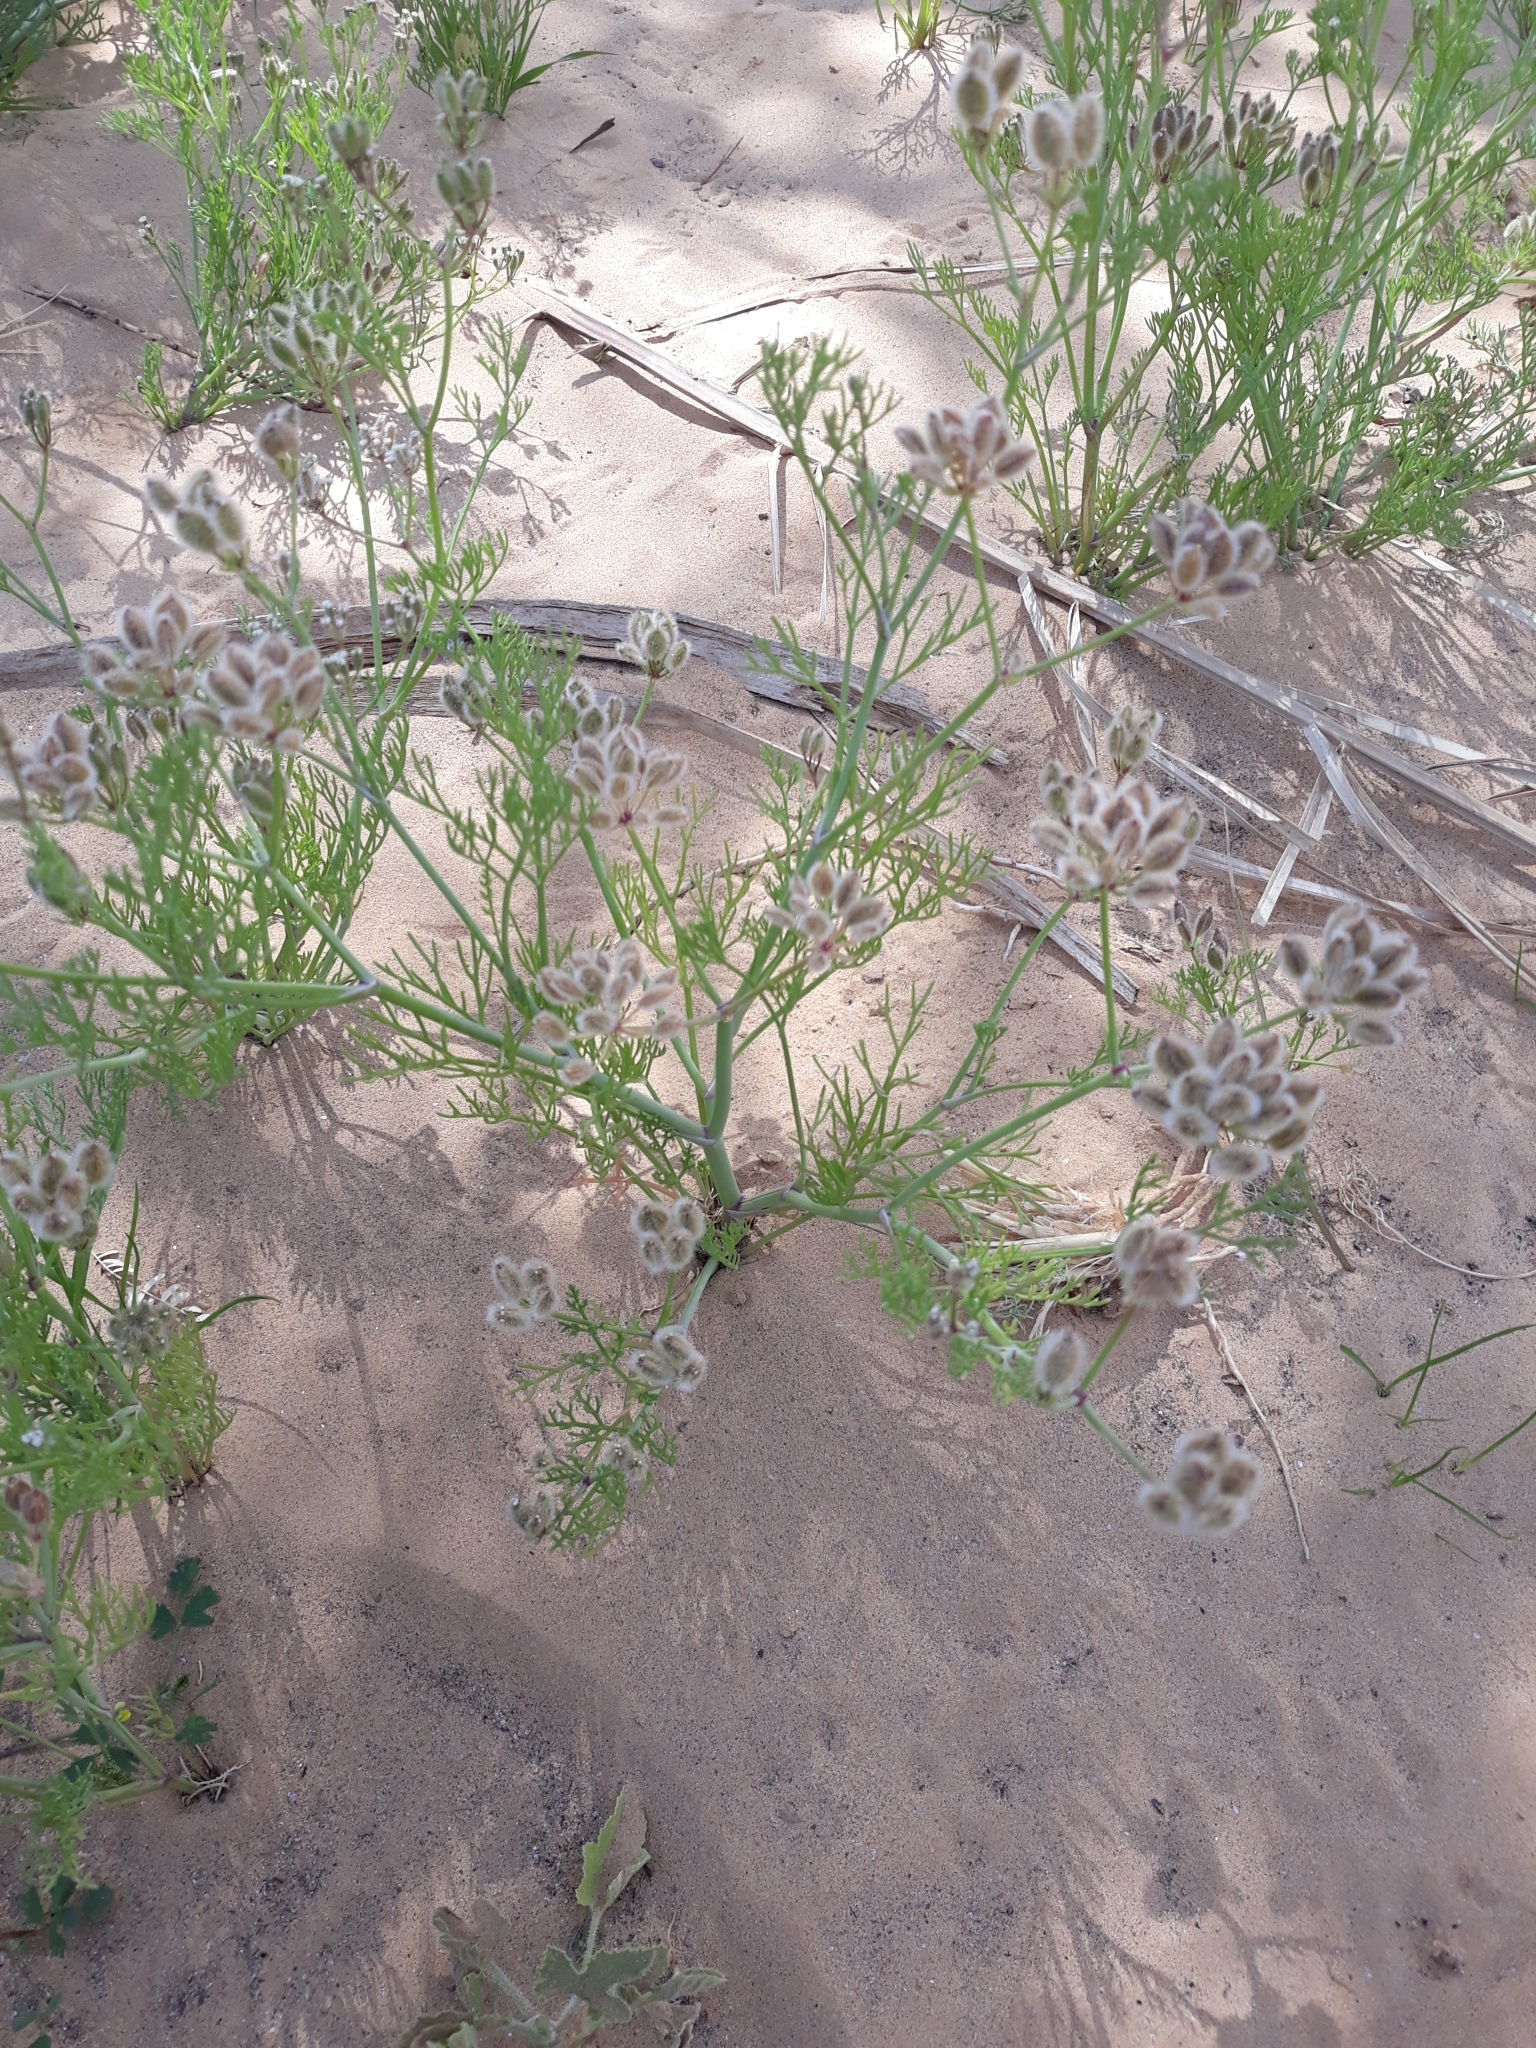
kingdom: Plantae
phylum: Tracheophyta
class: Magnoliopsida
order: Apiales
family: Apiaceae
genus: Ammodaucus
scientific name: Ammodaucus leucotrichus
